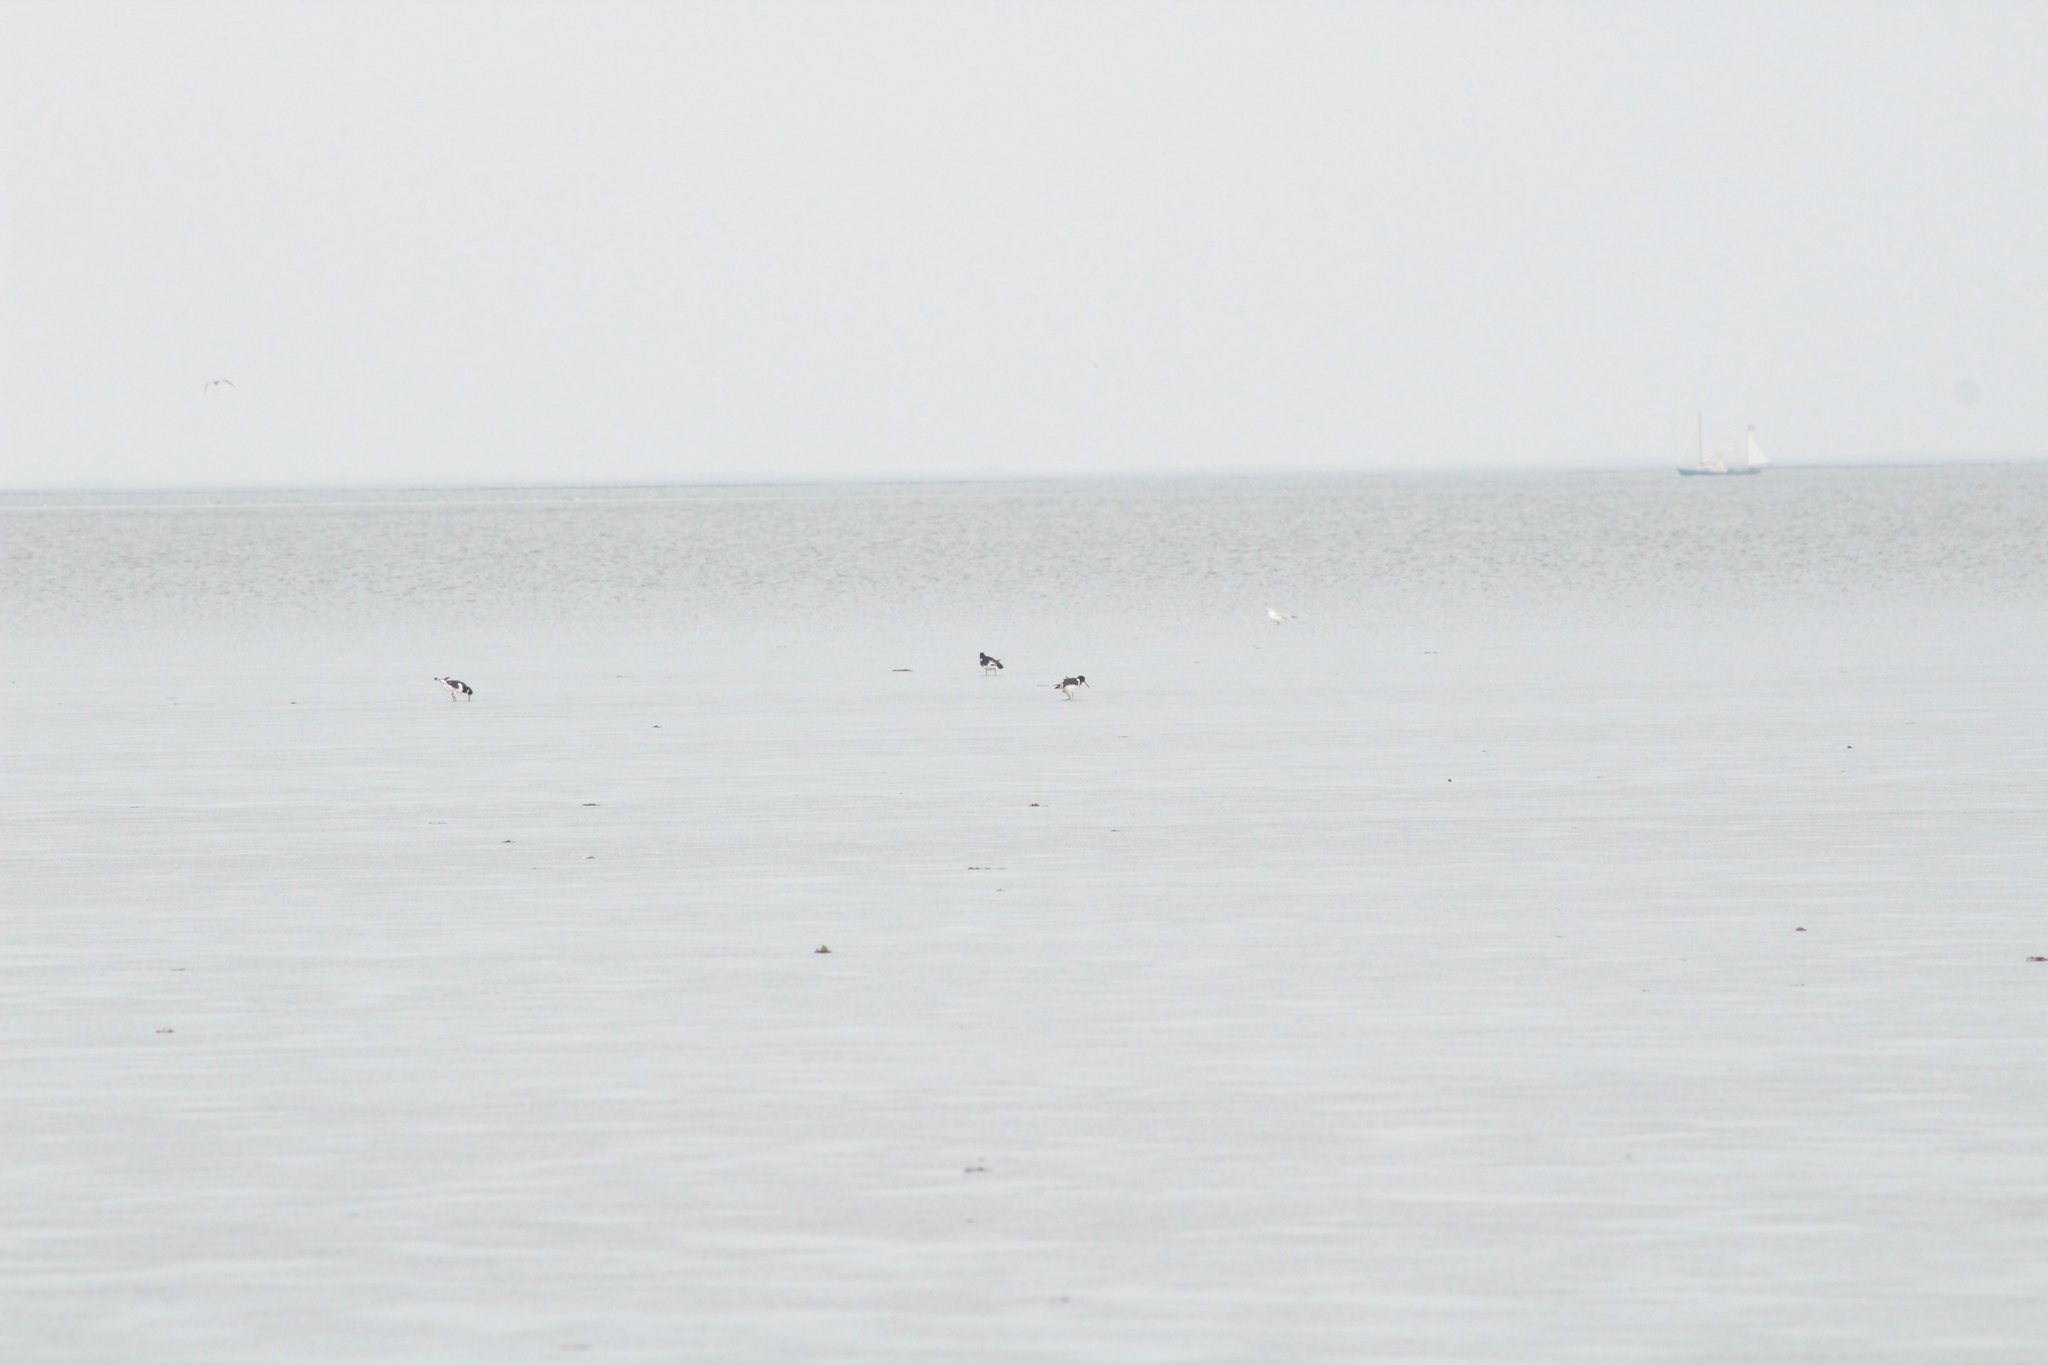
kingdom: Animalia
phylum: Chordata
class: Aves
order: Charadriiformes
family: Haematopodidae
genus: Haematopus
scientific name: Haematopus ostralegus
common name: Eurasian oystercatcher
